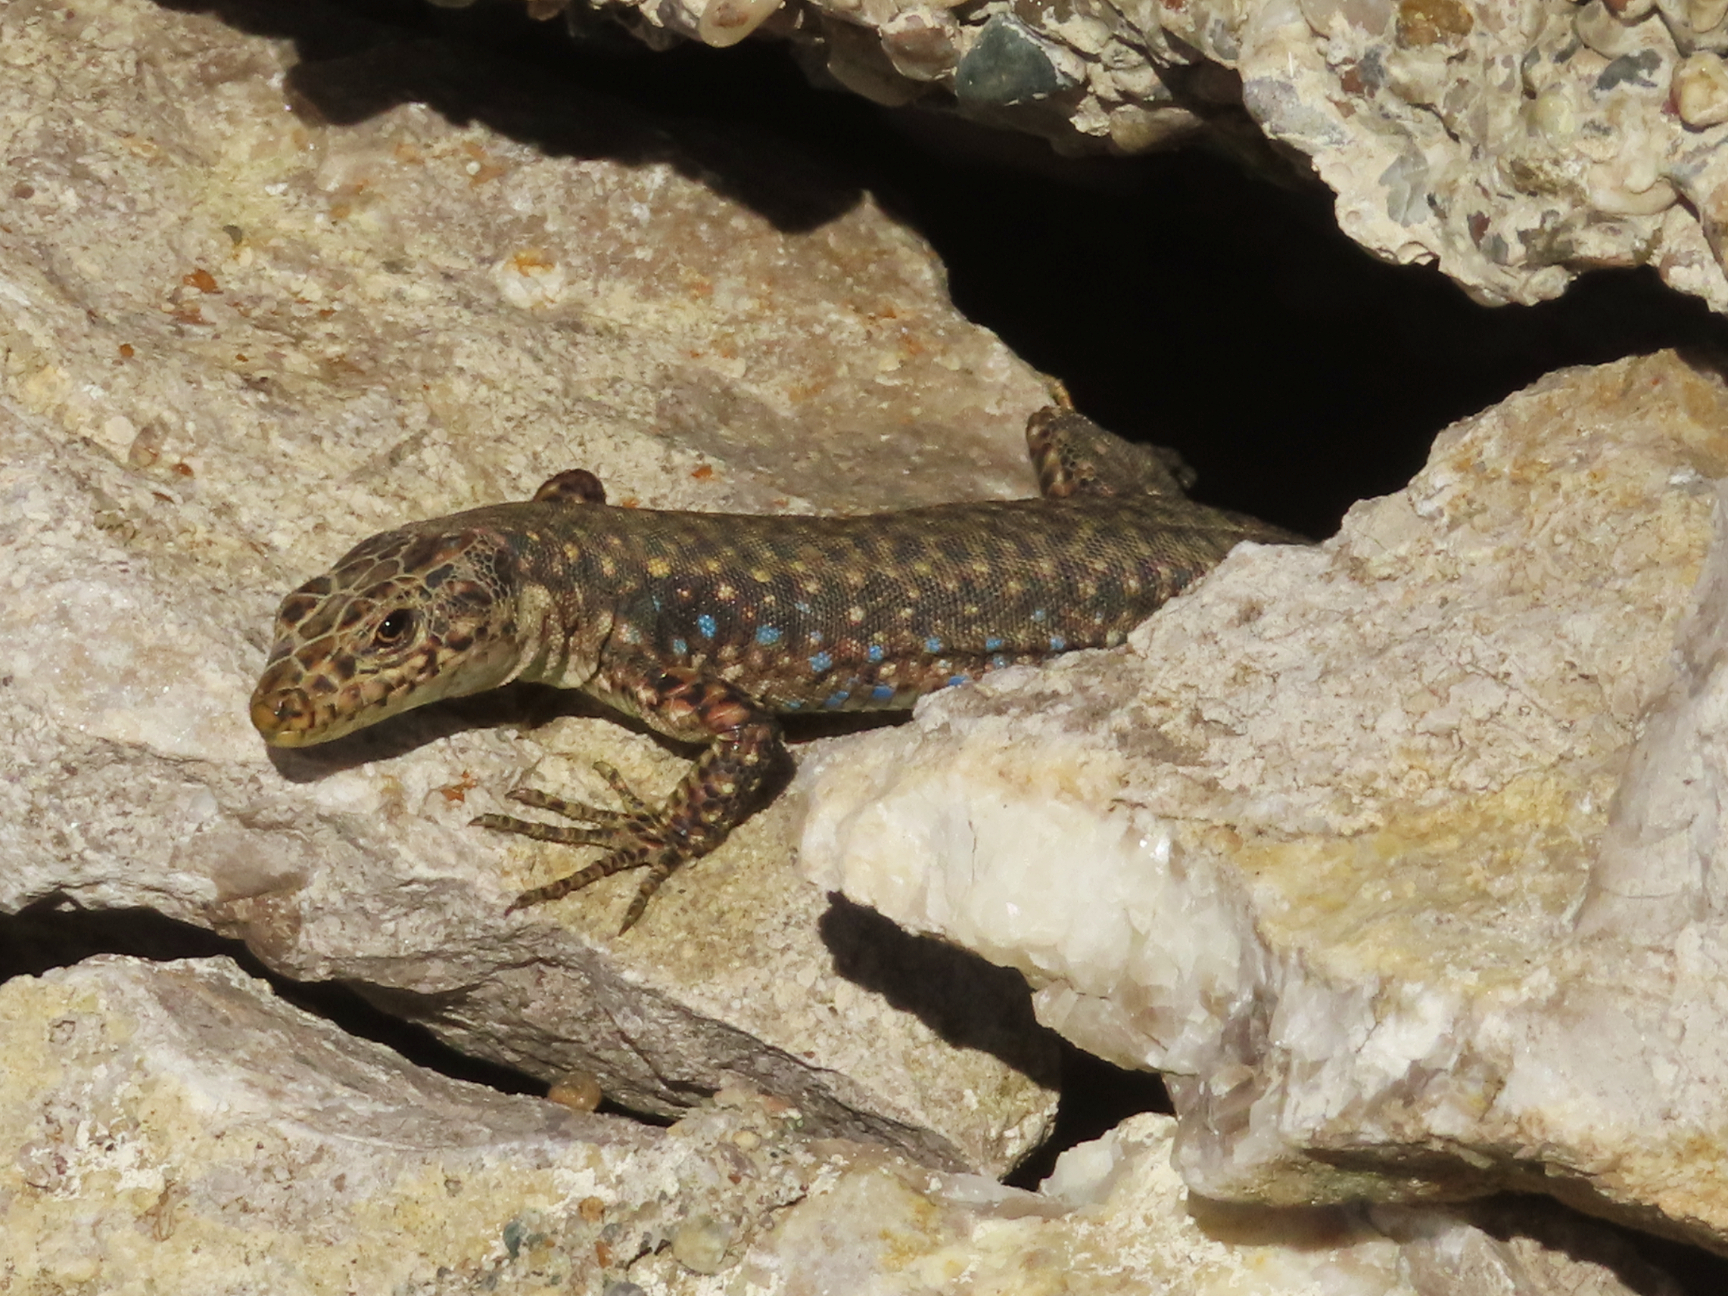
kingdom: Animalia
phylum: Chordata
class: Squamata
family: Lacertidae
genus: Darevskia
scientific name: Darevskia bithynica
